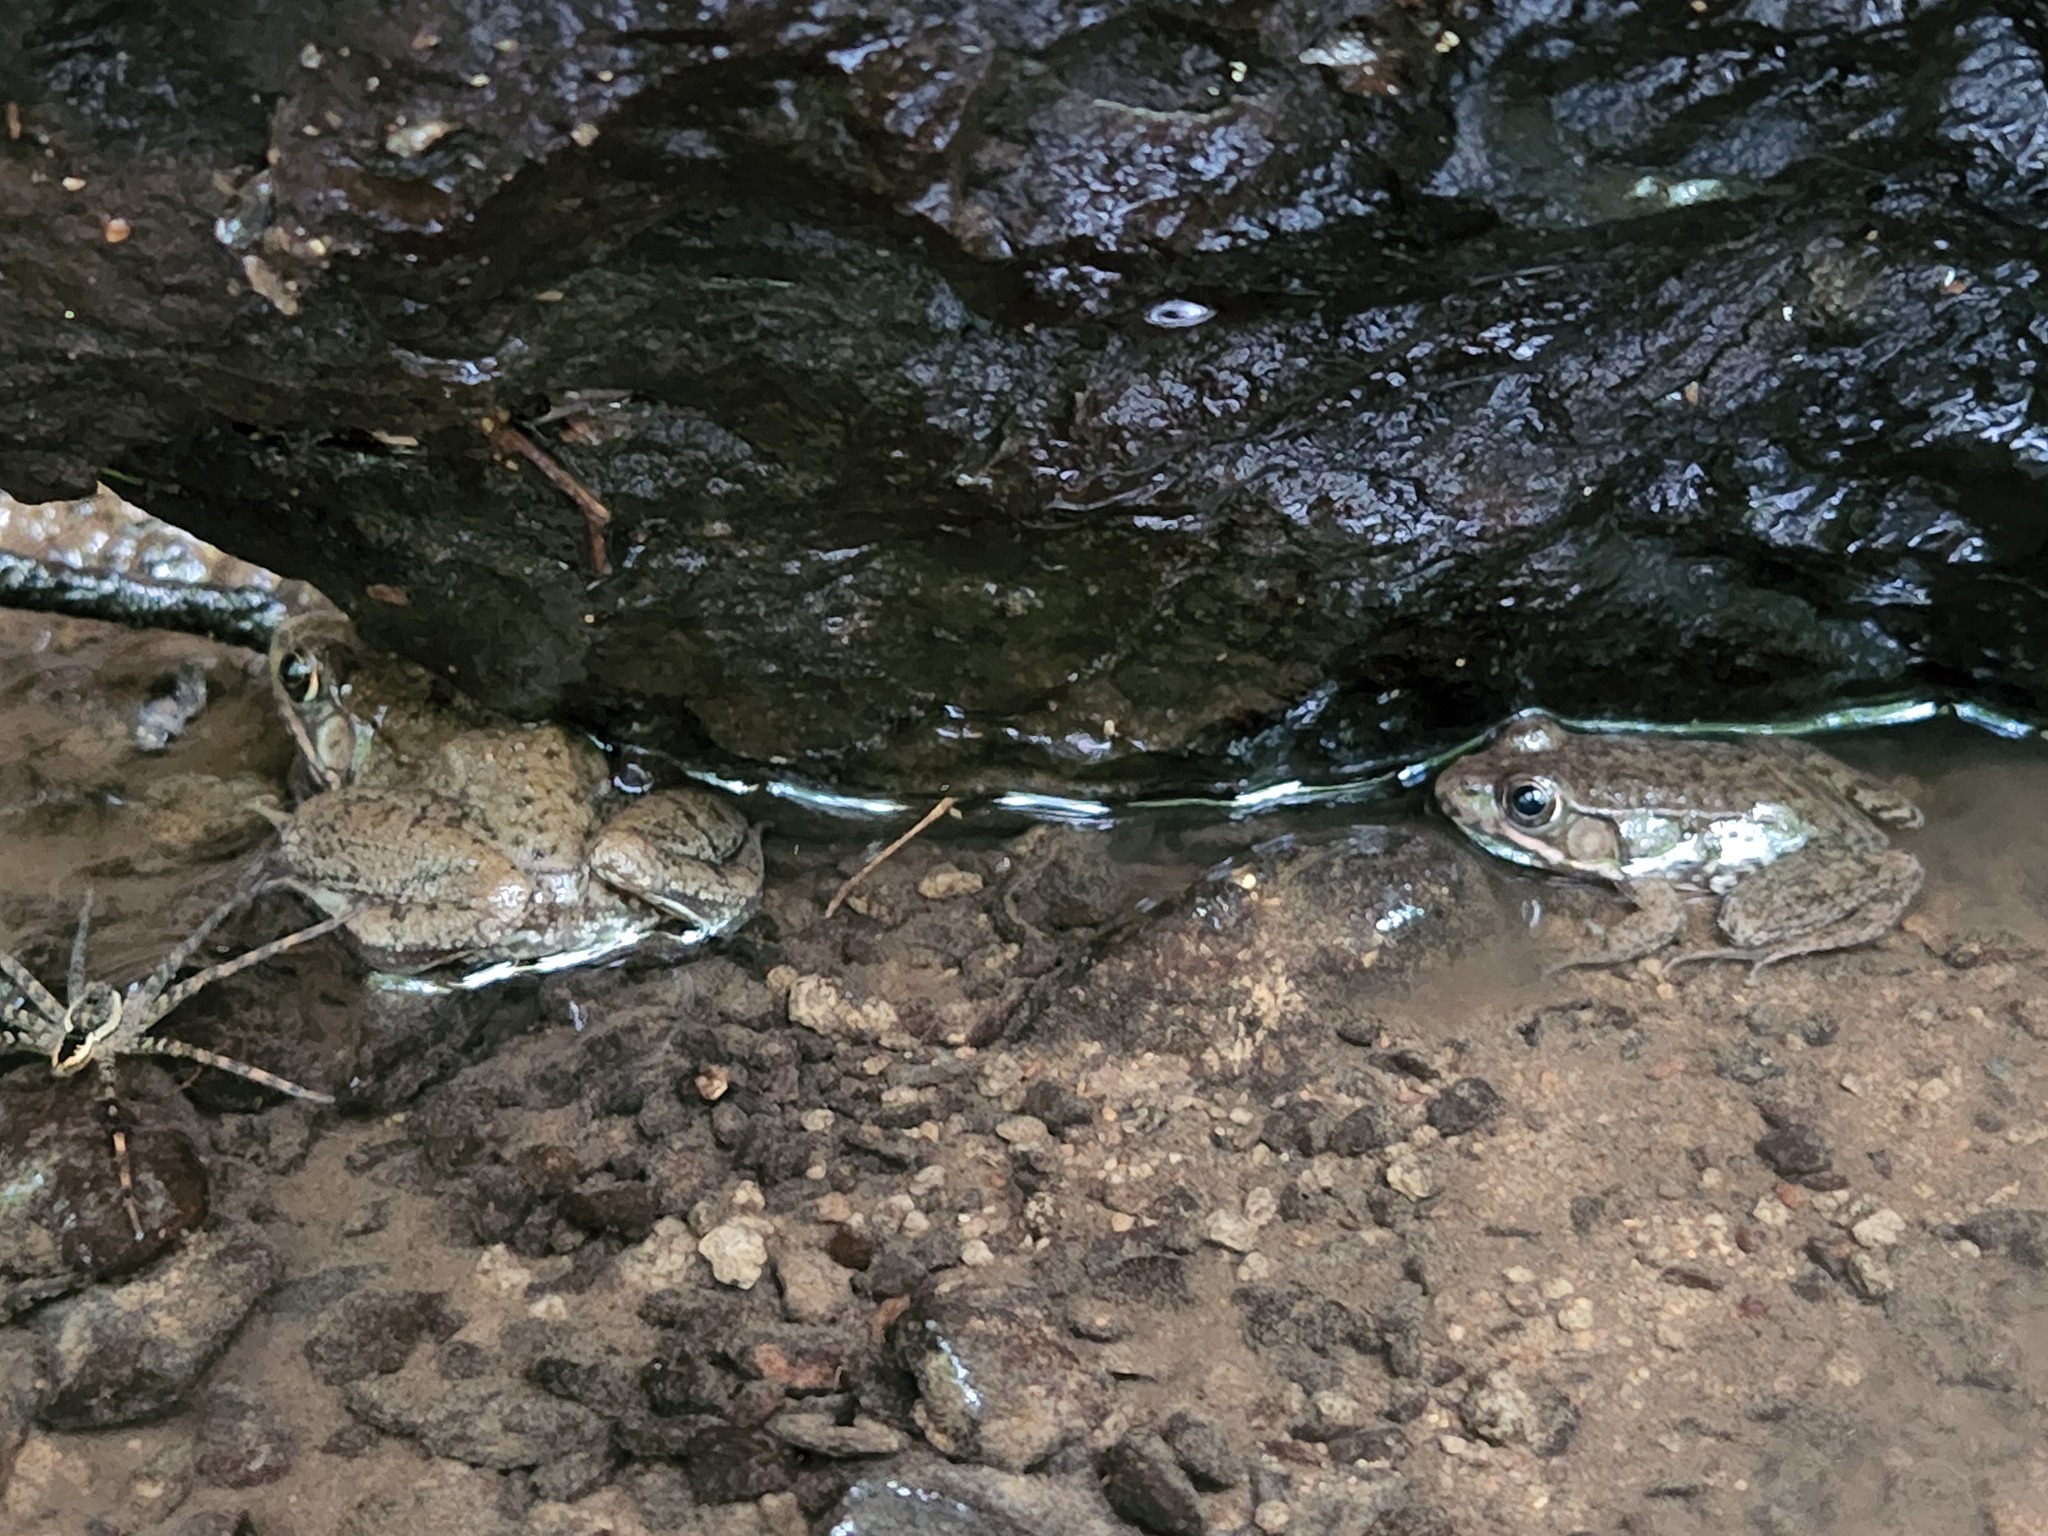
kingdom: Animalia
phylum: Chordata
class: Amphibia
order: Anura
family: Ranidae
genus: Lithobates
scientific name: Lithobates clamitans
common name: Green frog
